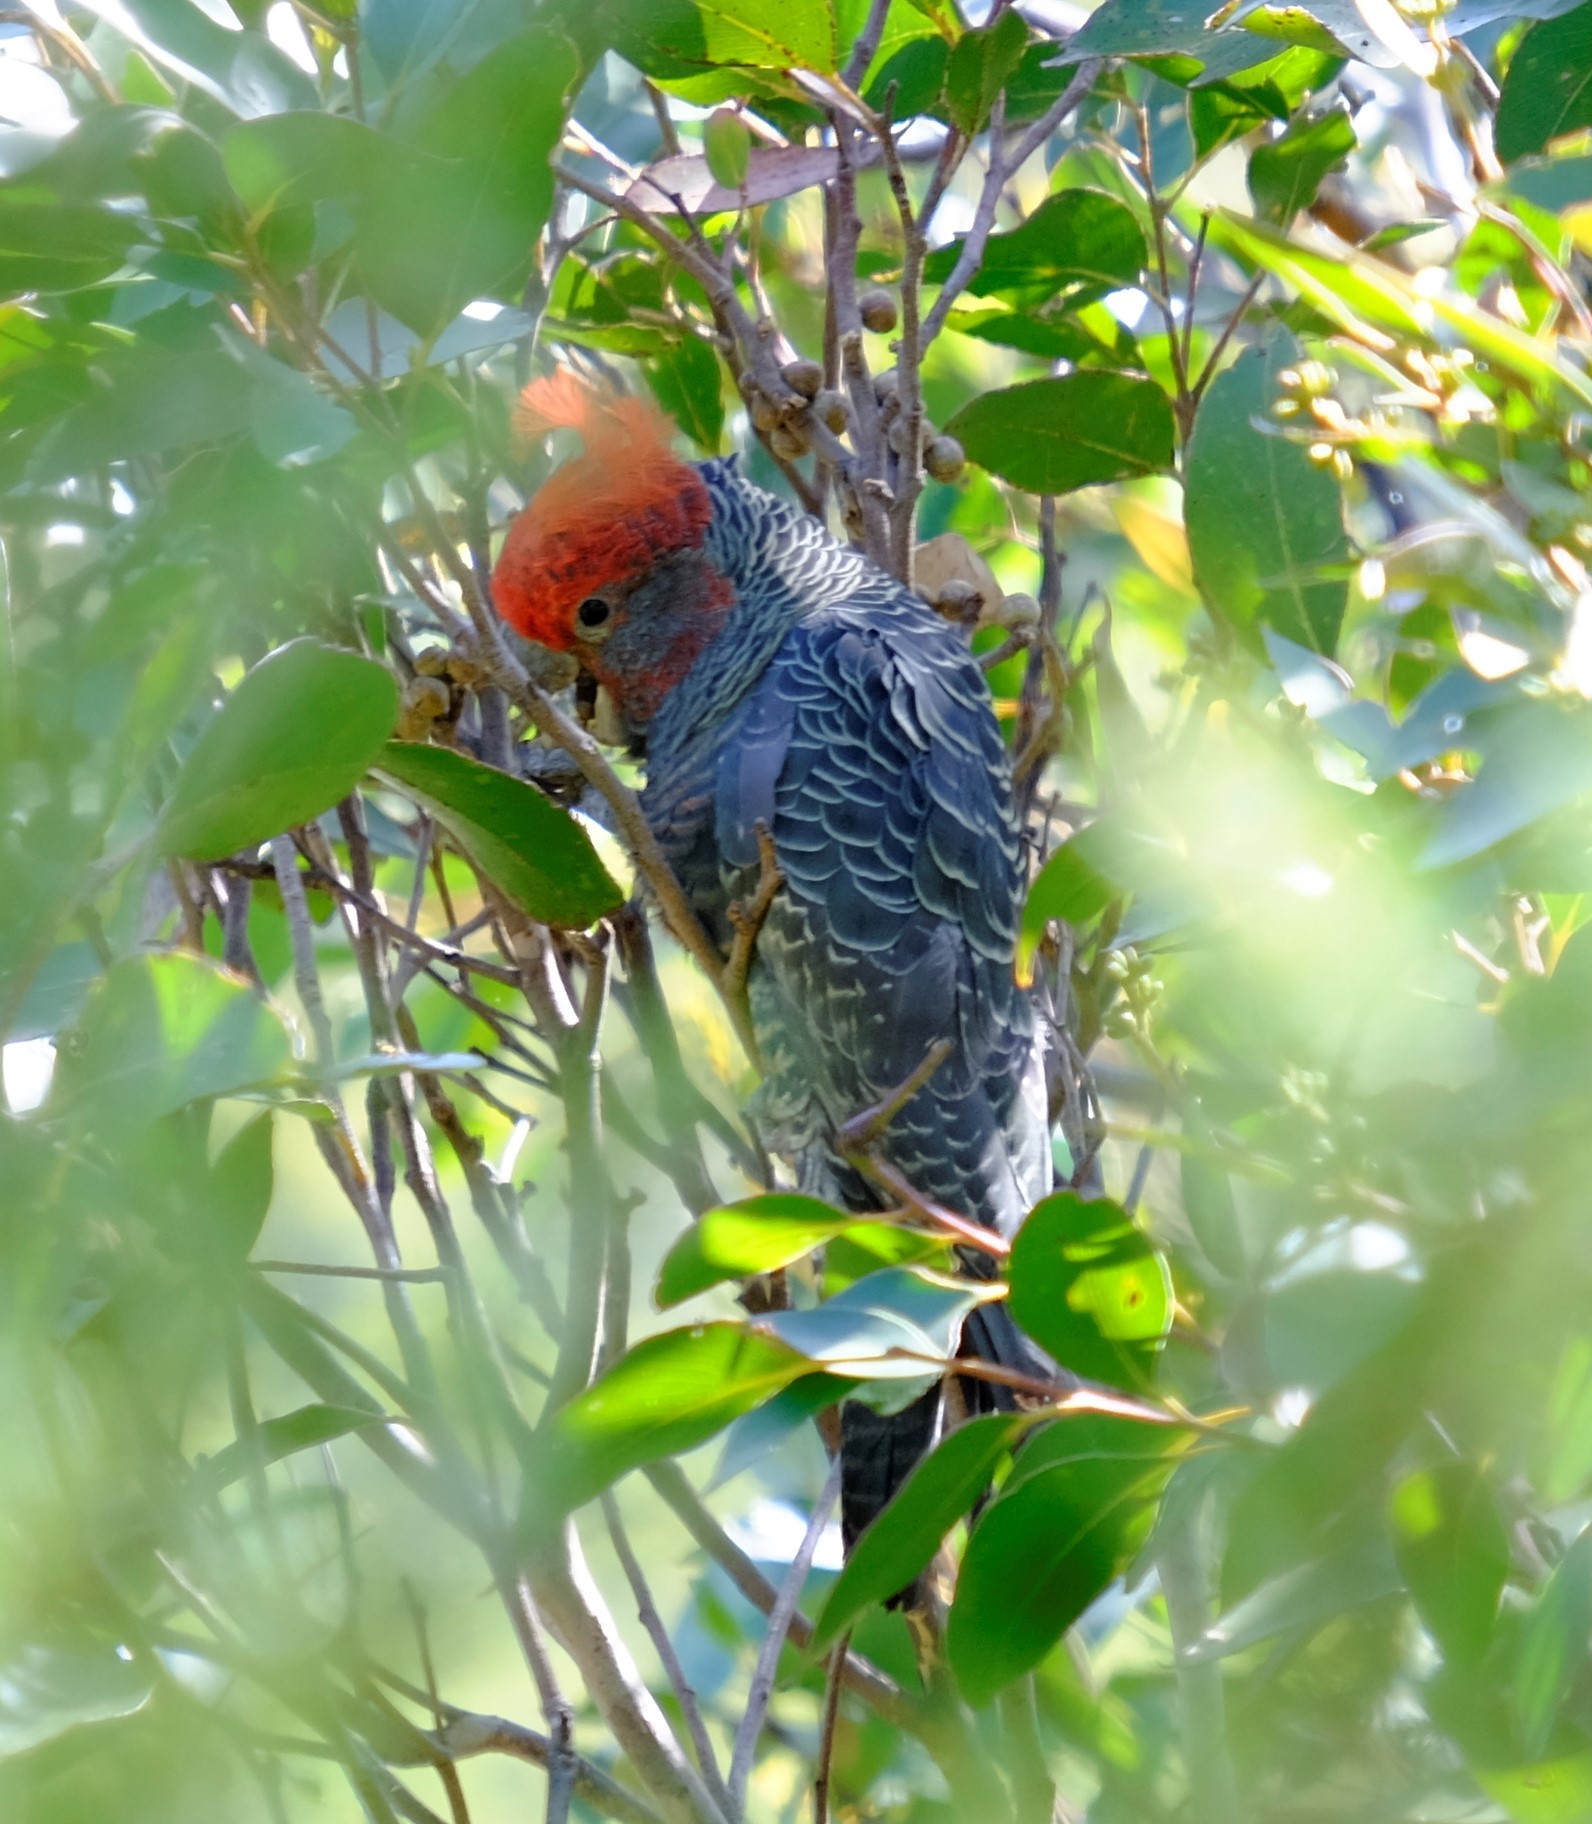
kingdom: Animalia
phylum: Chordata
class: Aves
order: Psittaciformes
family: Psittacidae
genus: Callocephalon
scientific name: Callocephalon fimbriatum
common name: Gang-gang cockatoo
